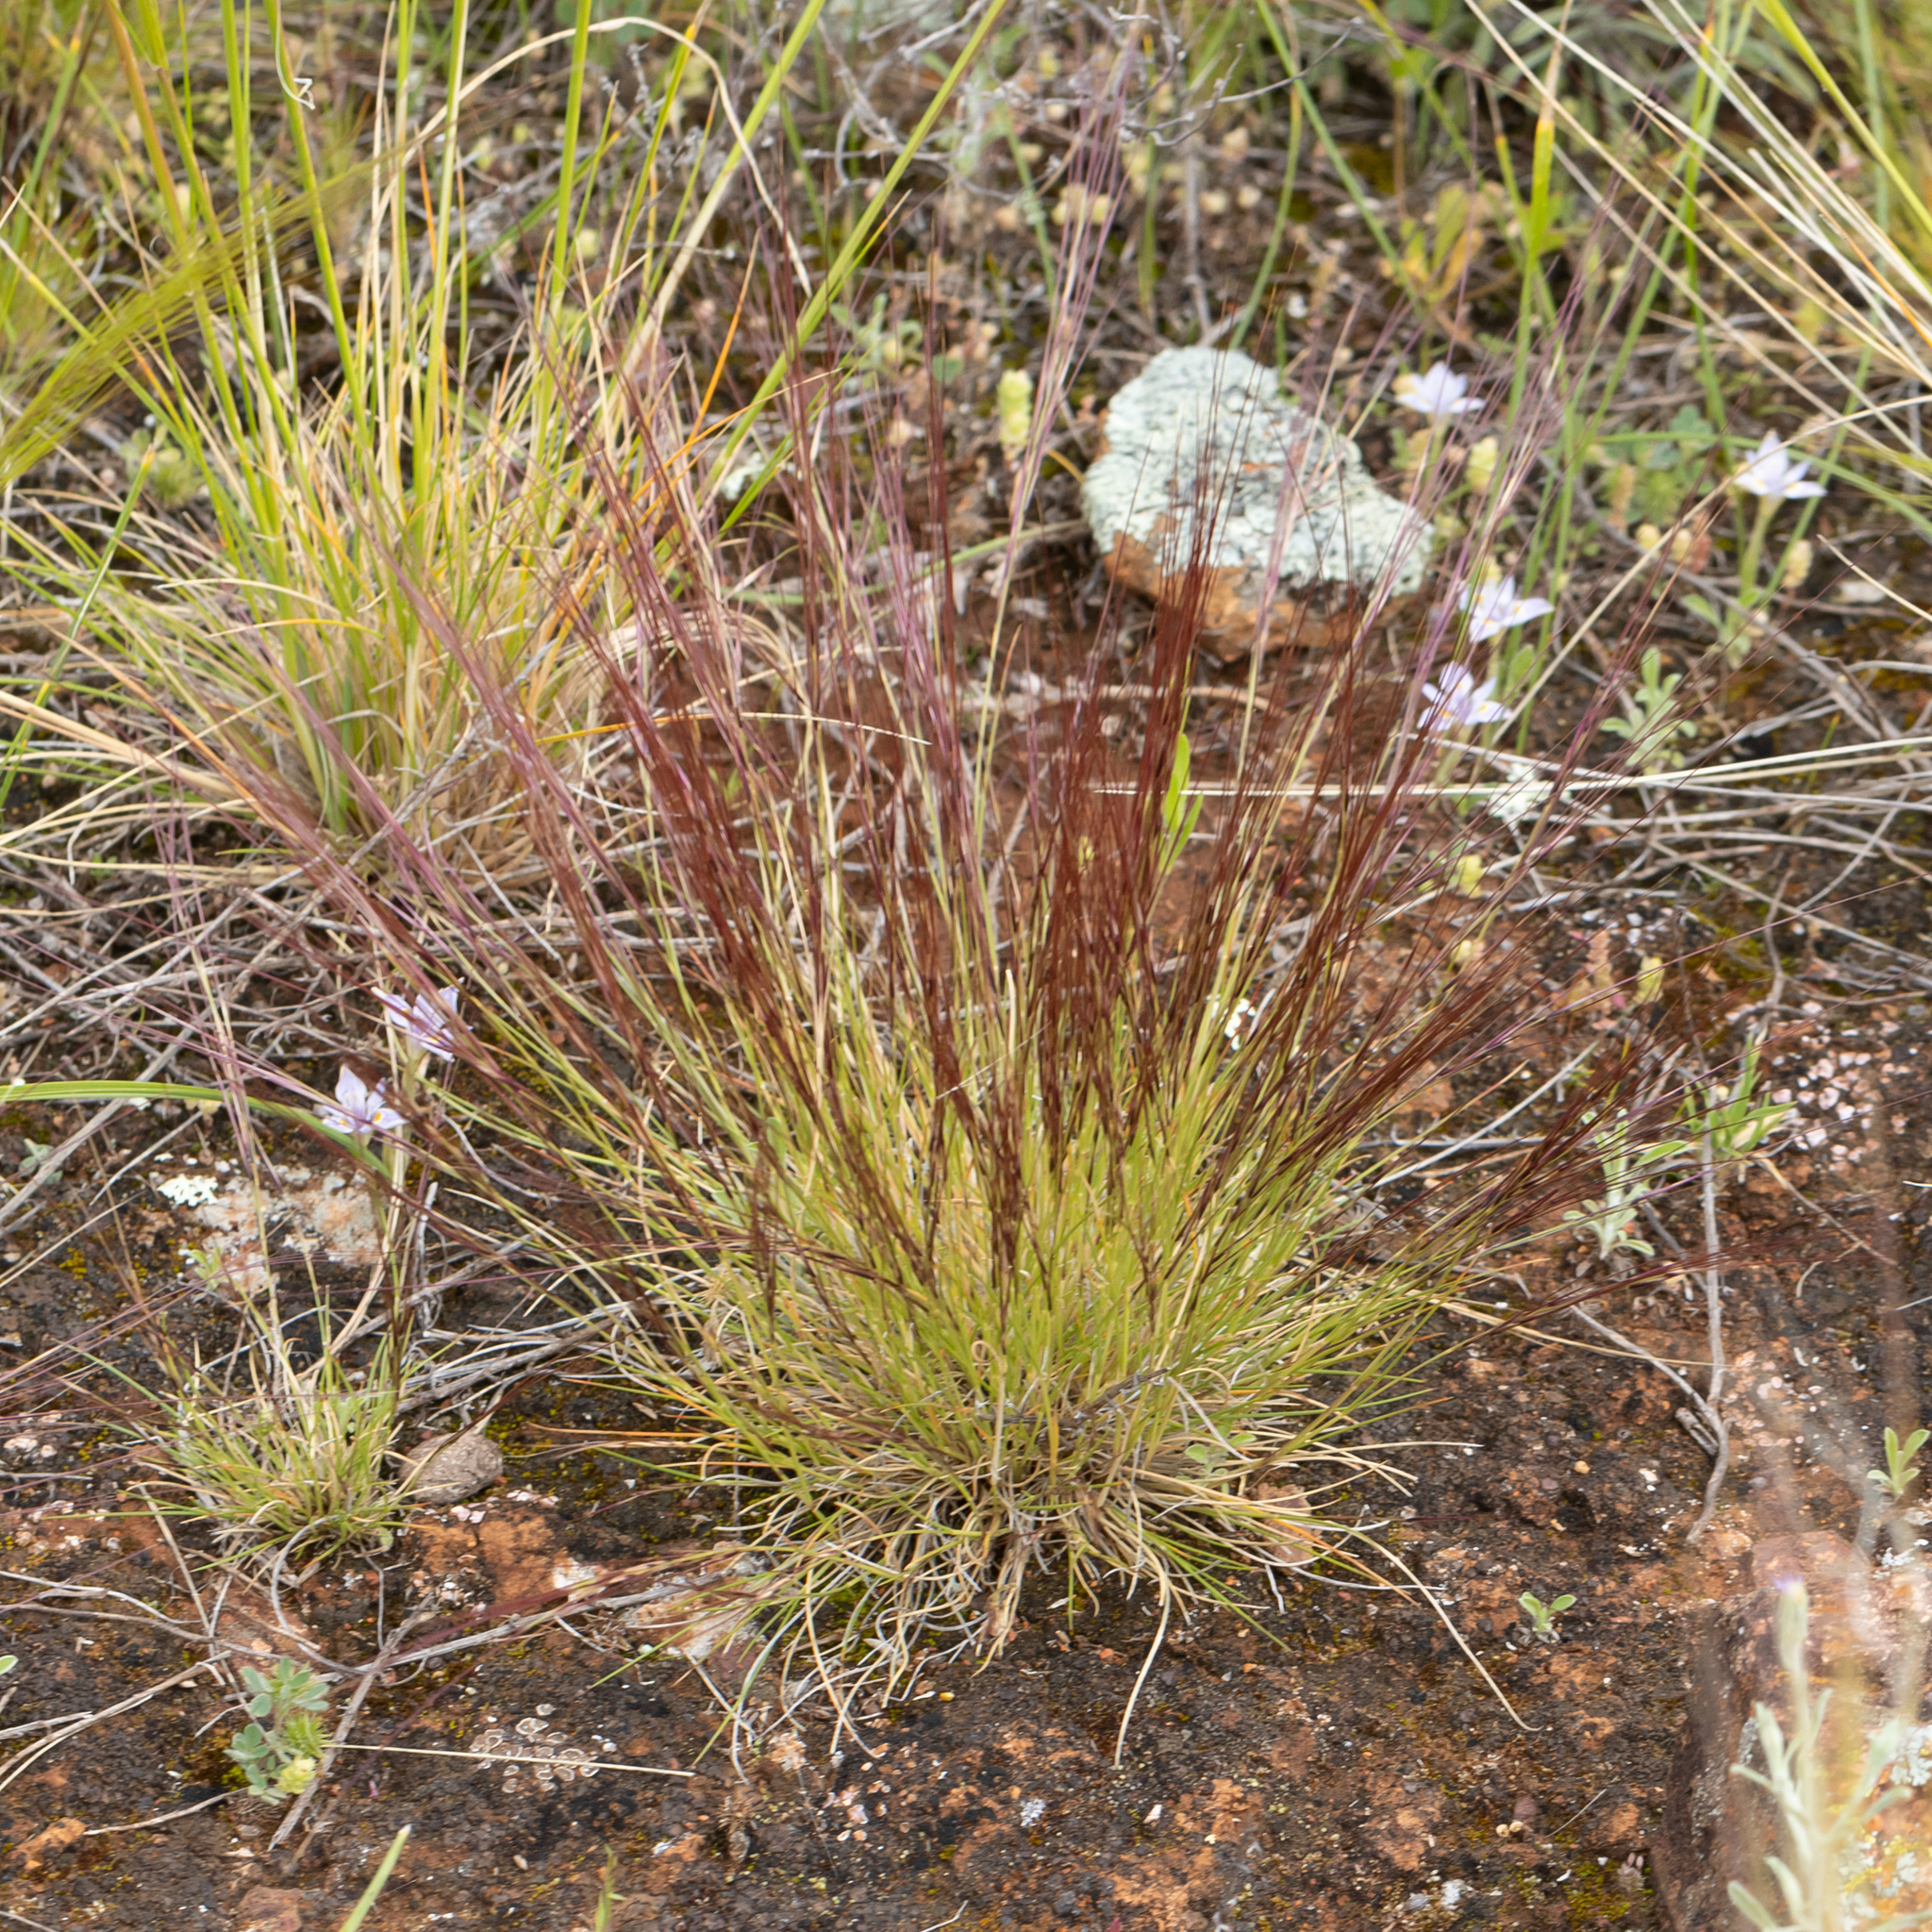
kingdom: Plantae
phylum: Tracheophyta
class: Liliopsida
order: Poales
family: Poaceae
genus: Aristida
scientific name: Aristida contorta
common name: Bunch kerosene grass
